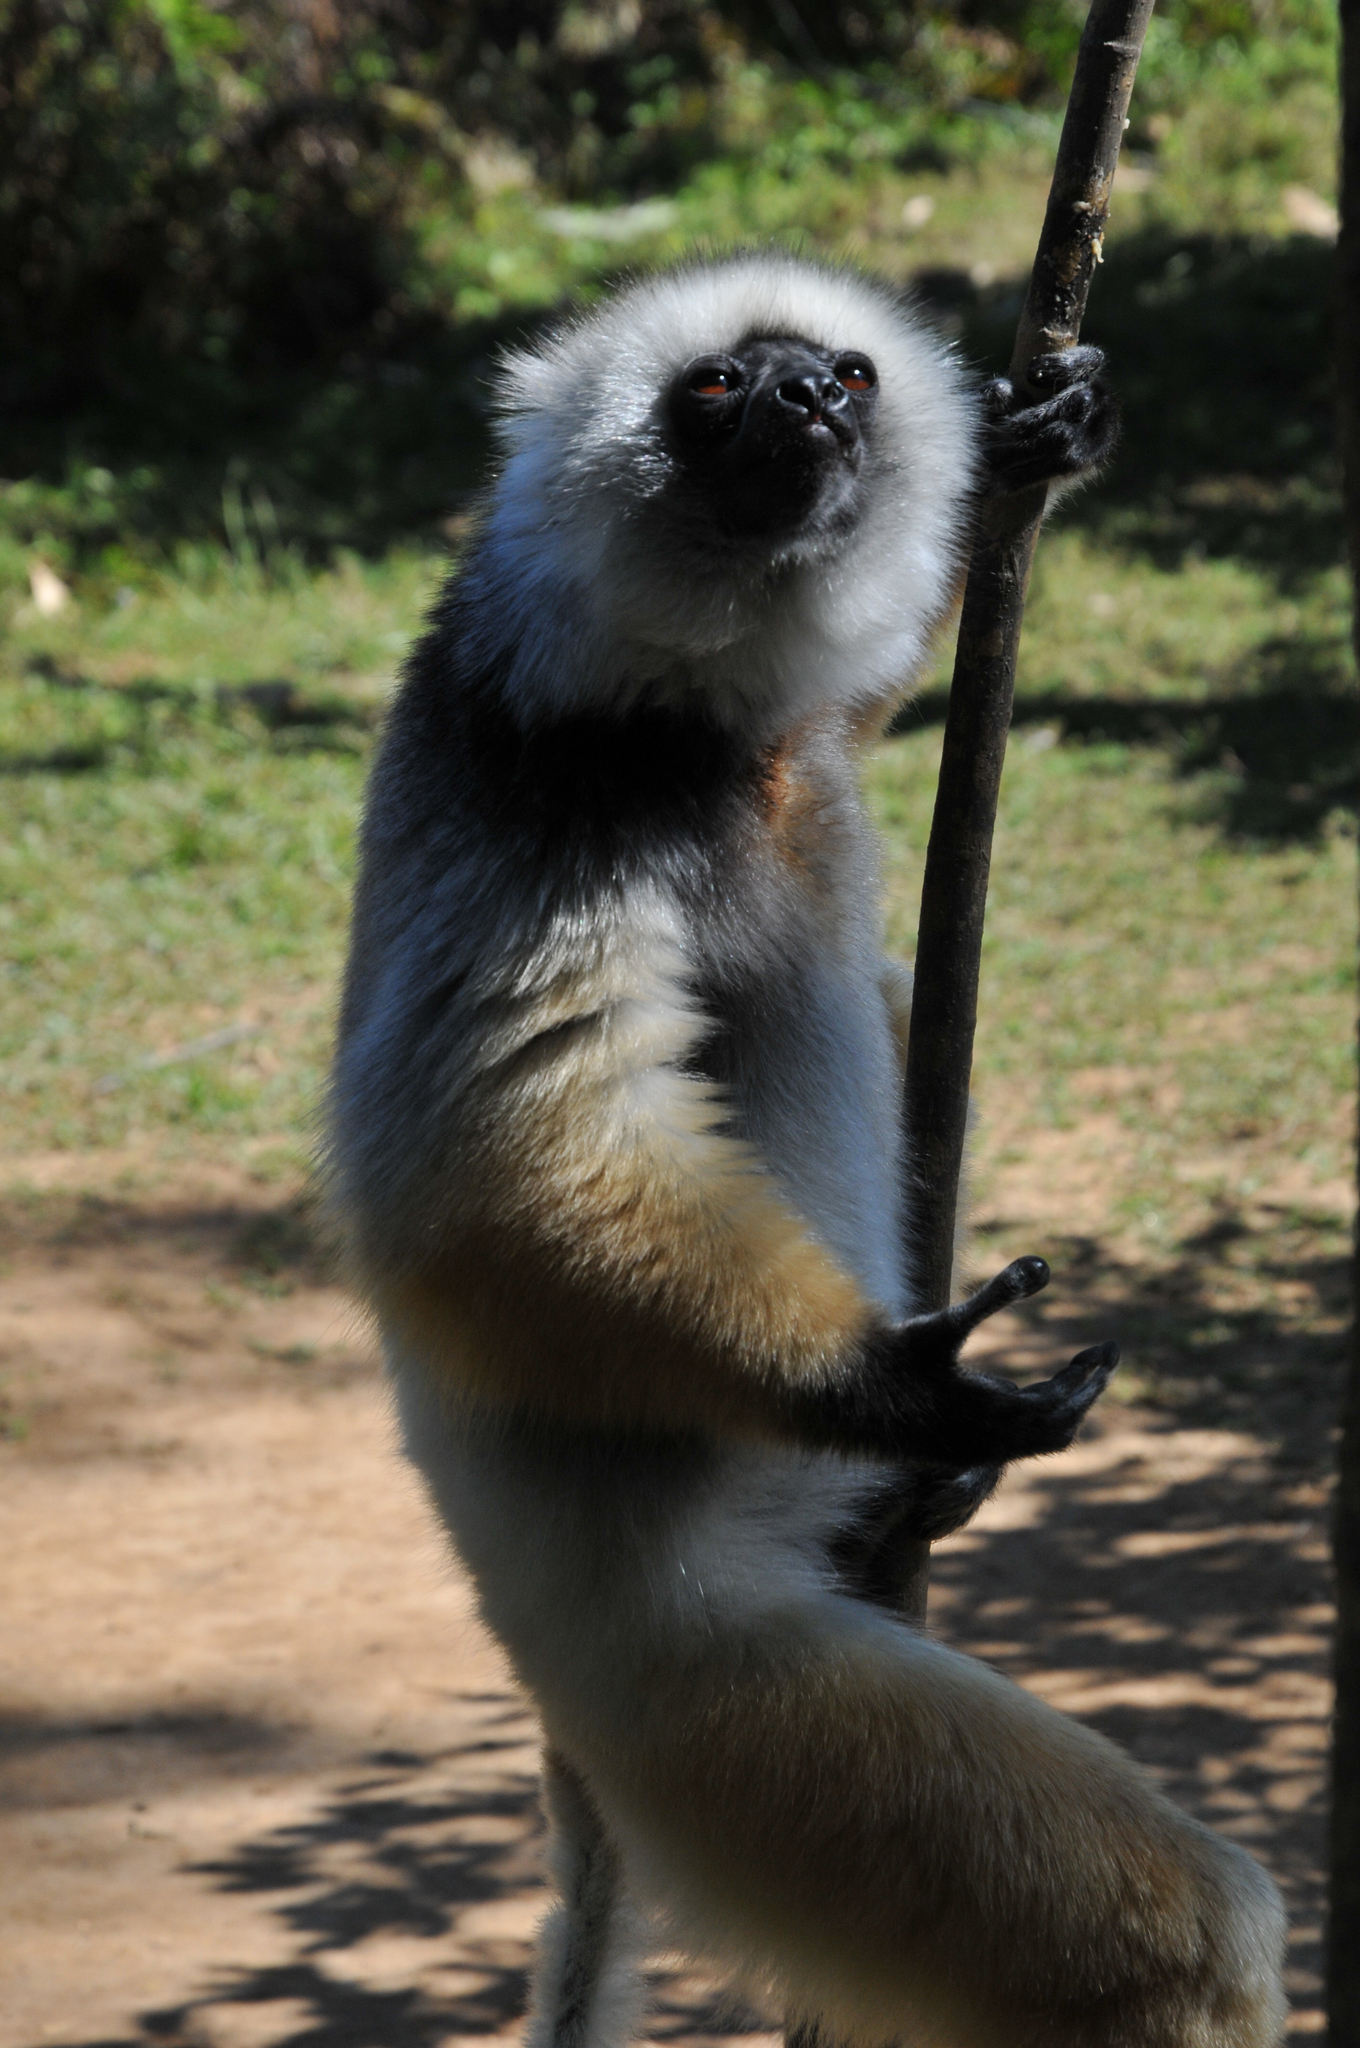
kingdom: Animalia
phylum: Chordata
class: Mammalia
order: Primates
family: Indriidae
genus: Propithecus
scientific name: Propithecus diadema
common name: Diademed sifaka
